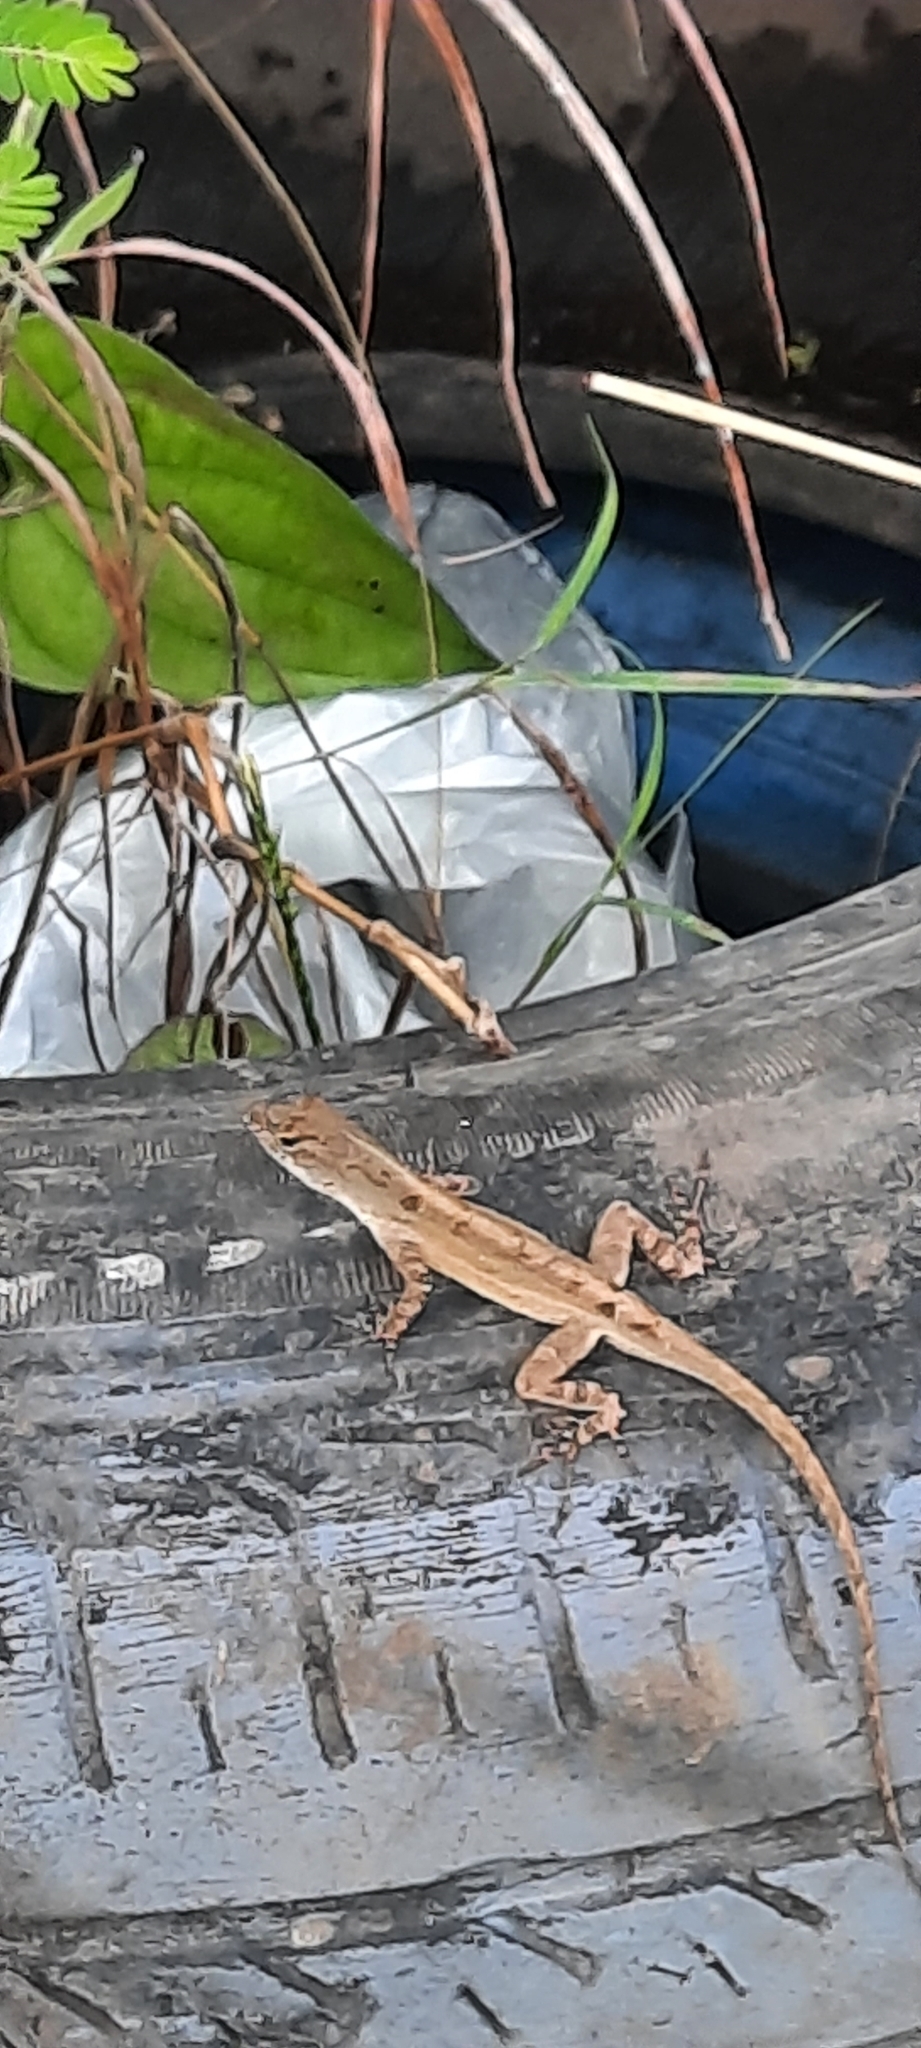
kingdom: Animalia
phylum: Chordata
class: Squamata
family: Dactyloidae
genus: Anolis
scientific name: Anolis sagrei
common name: Brown anole
